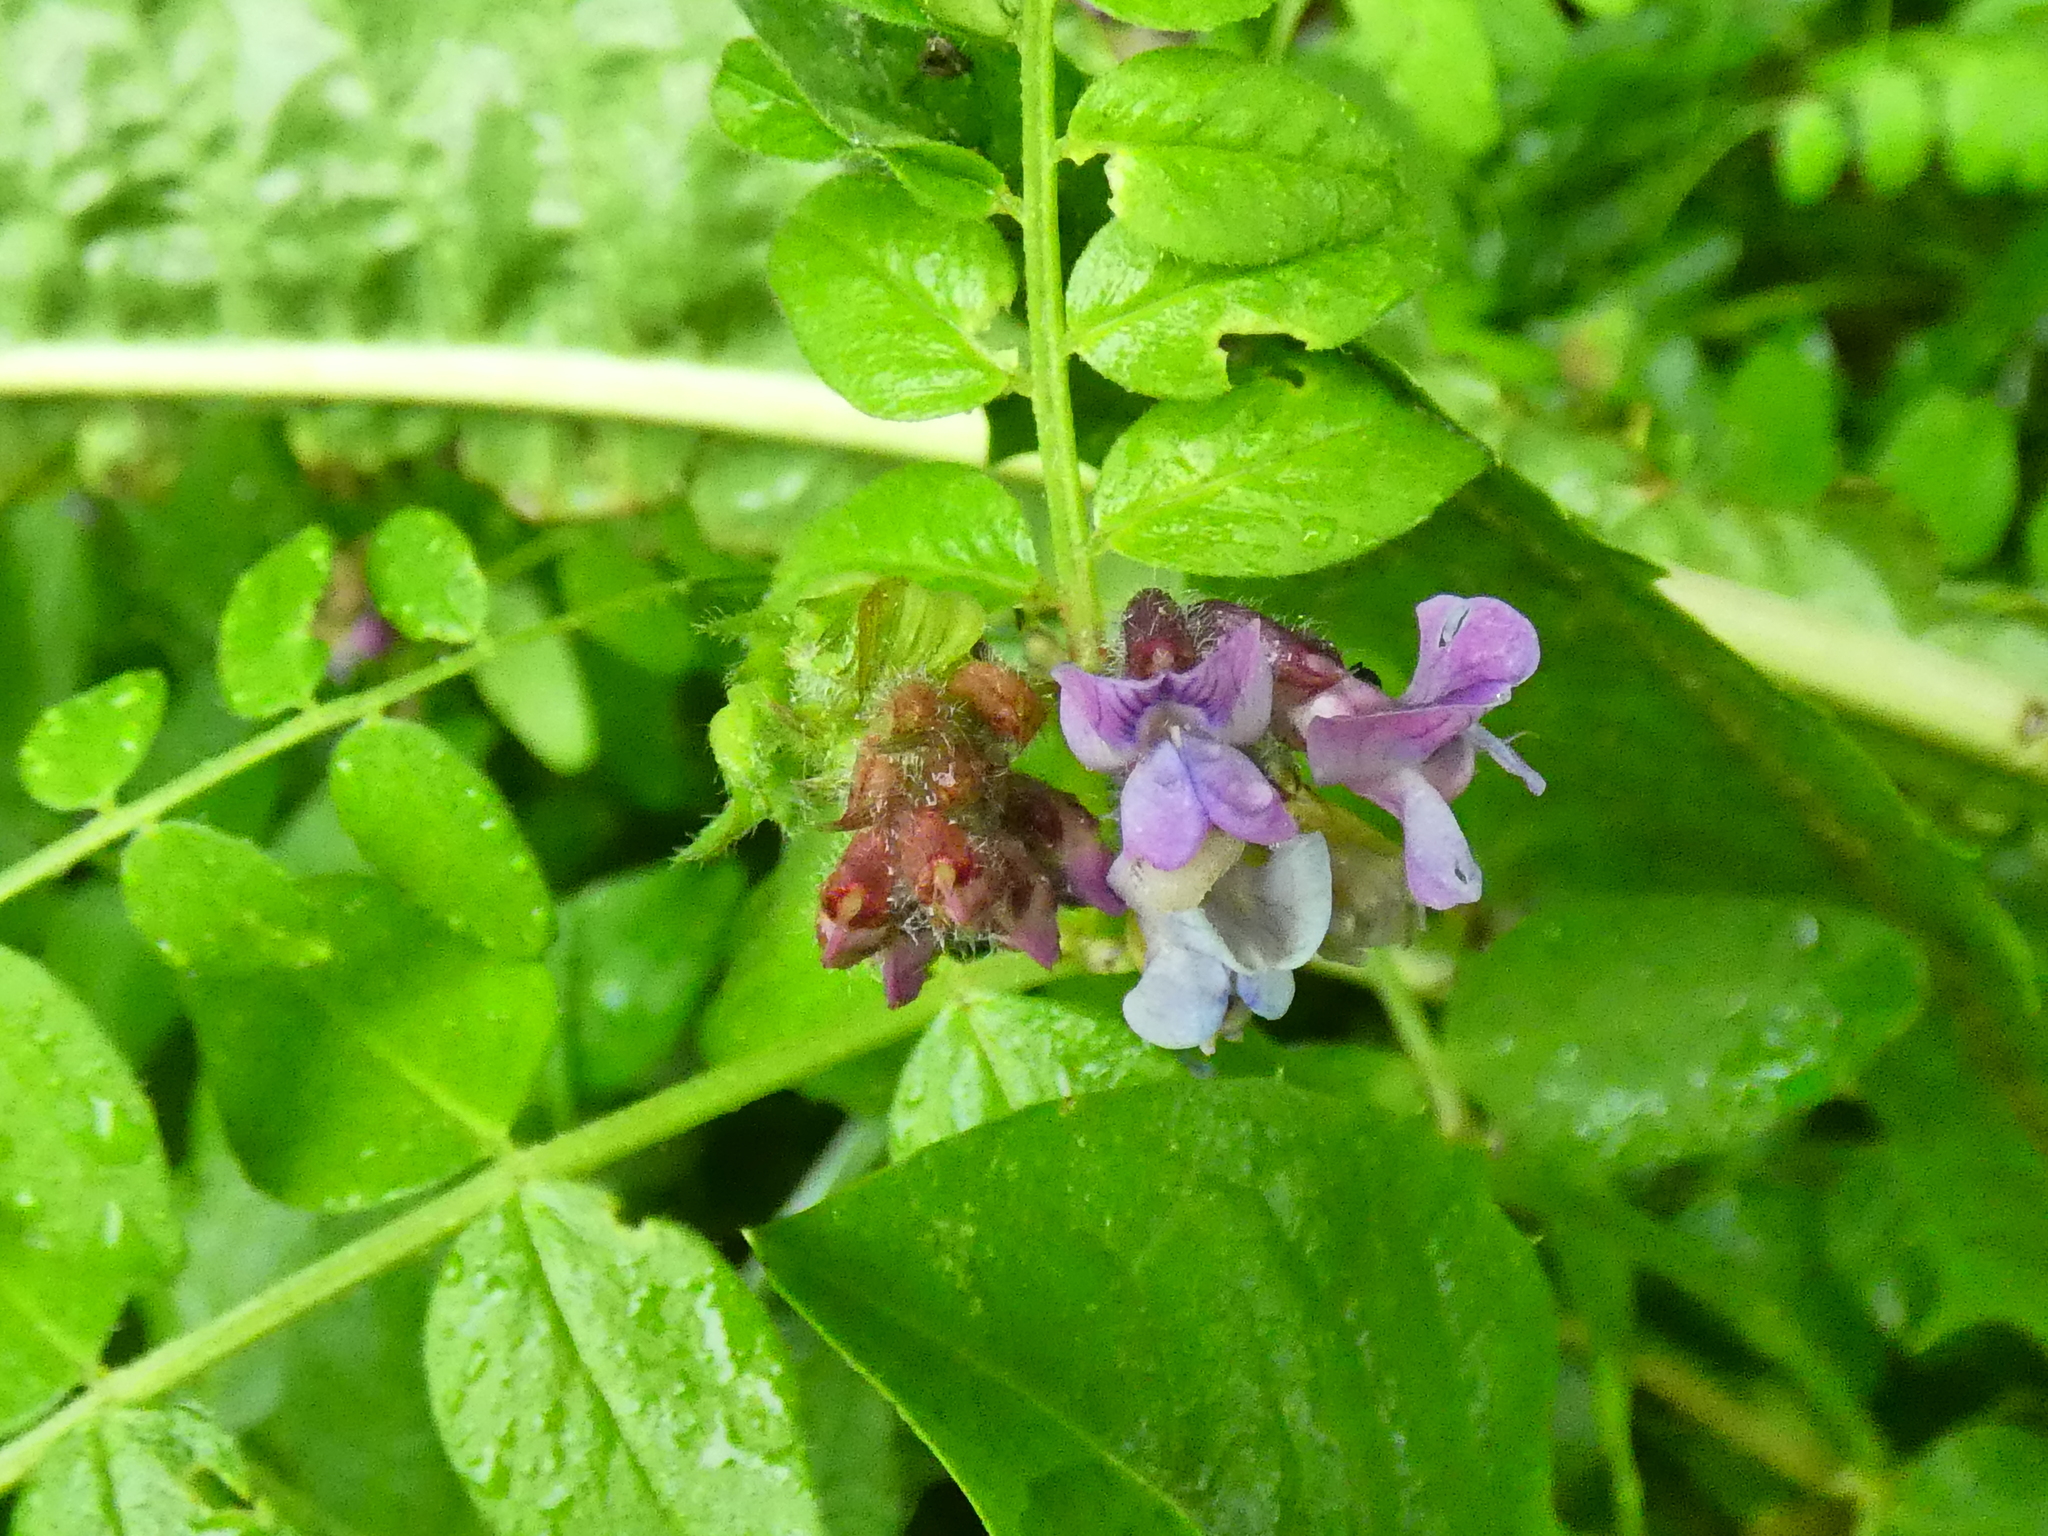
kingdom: Plantae
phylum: Tracheophyta
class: Magnoliopsida
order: Fabales
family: Fabaceae
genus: Vicia
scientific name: Vicia sepium
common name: Bush vetch
